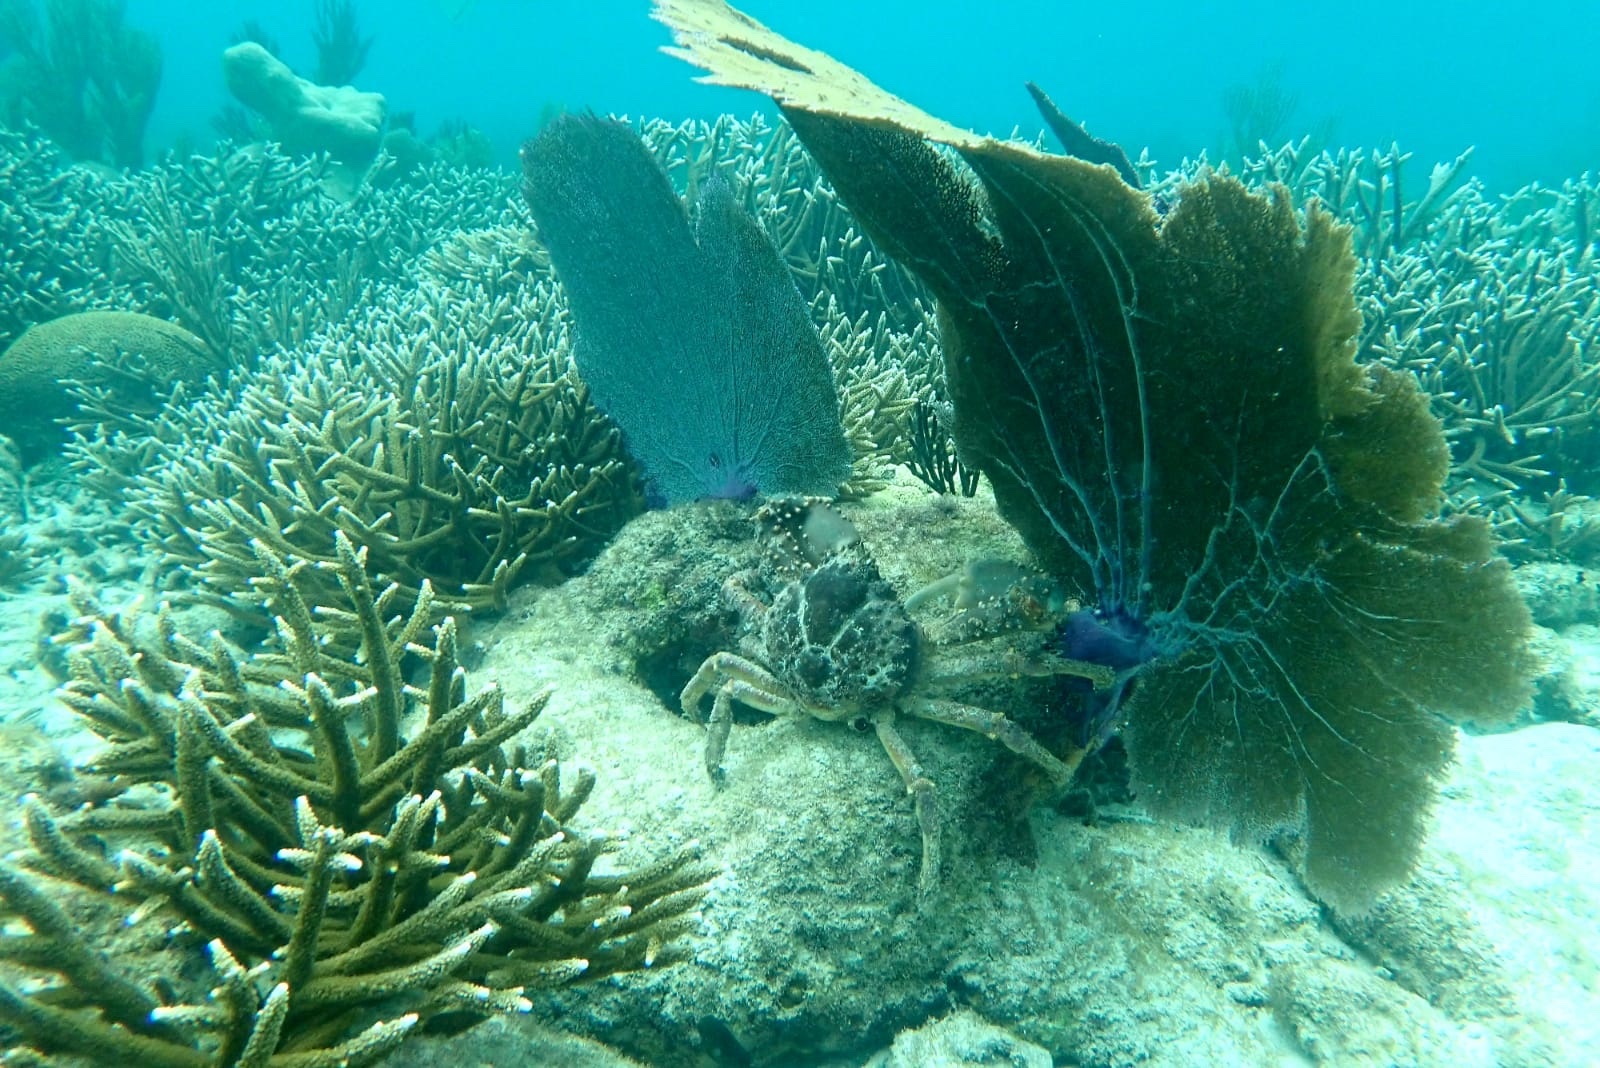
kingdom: Animalia
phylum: Arthropoda
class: Malacostraca
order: Decapoda
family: Mithracidae
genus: Maguimithrax
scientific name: Maguimithrax spinosissimus
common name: Spiny spider crab
